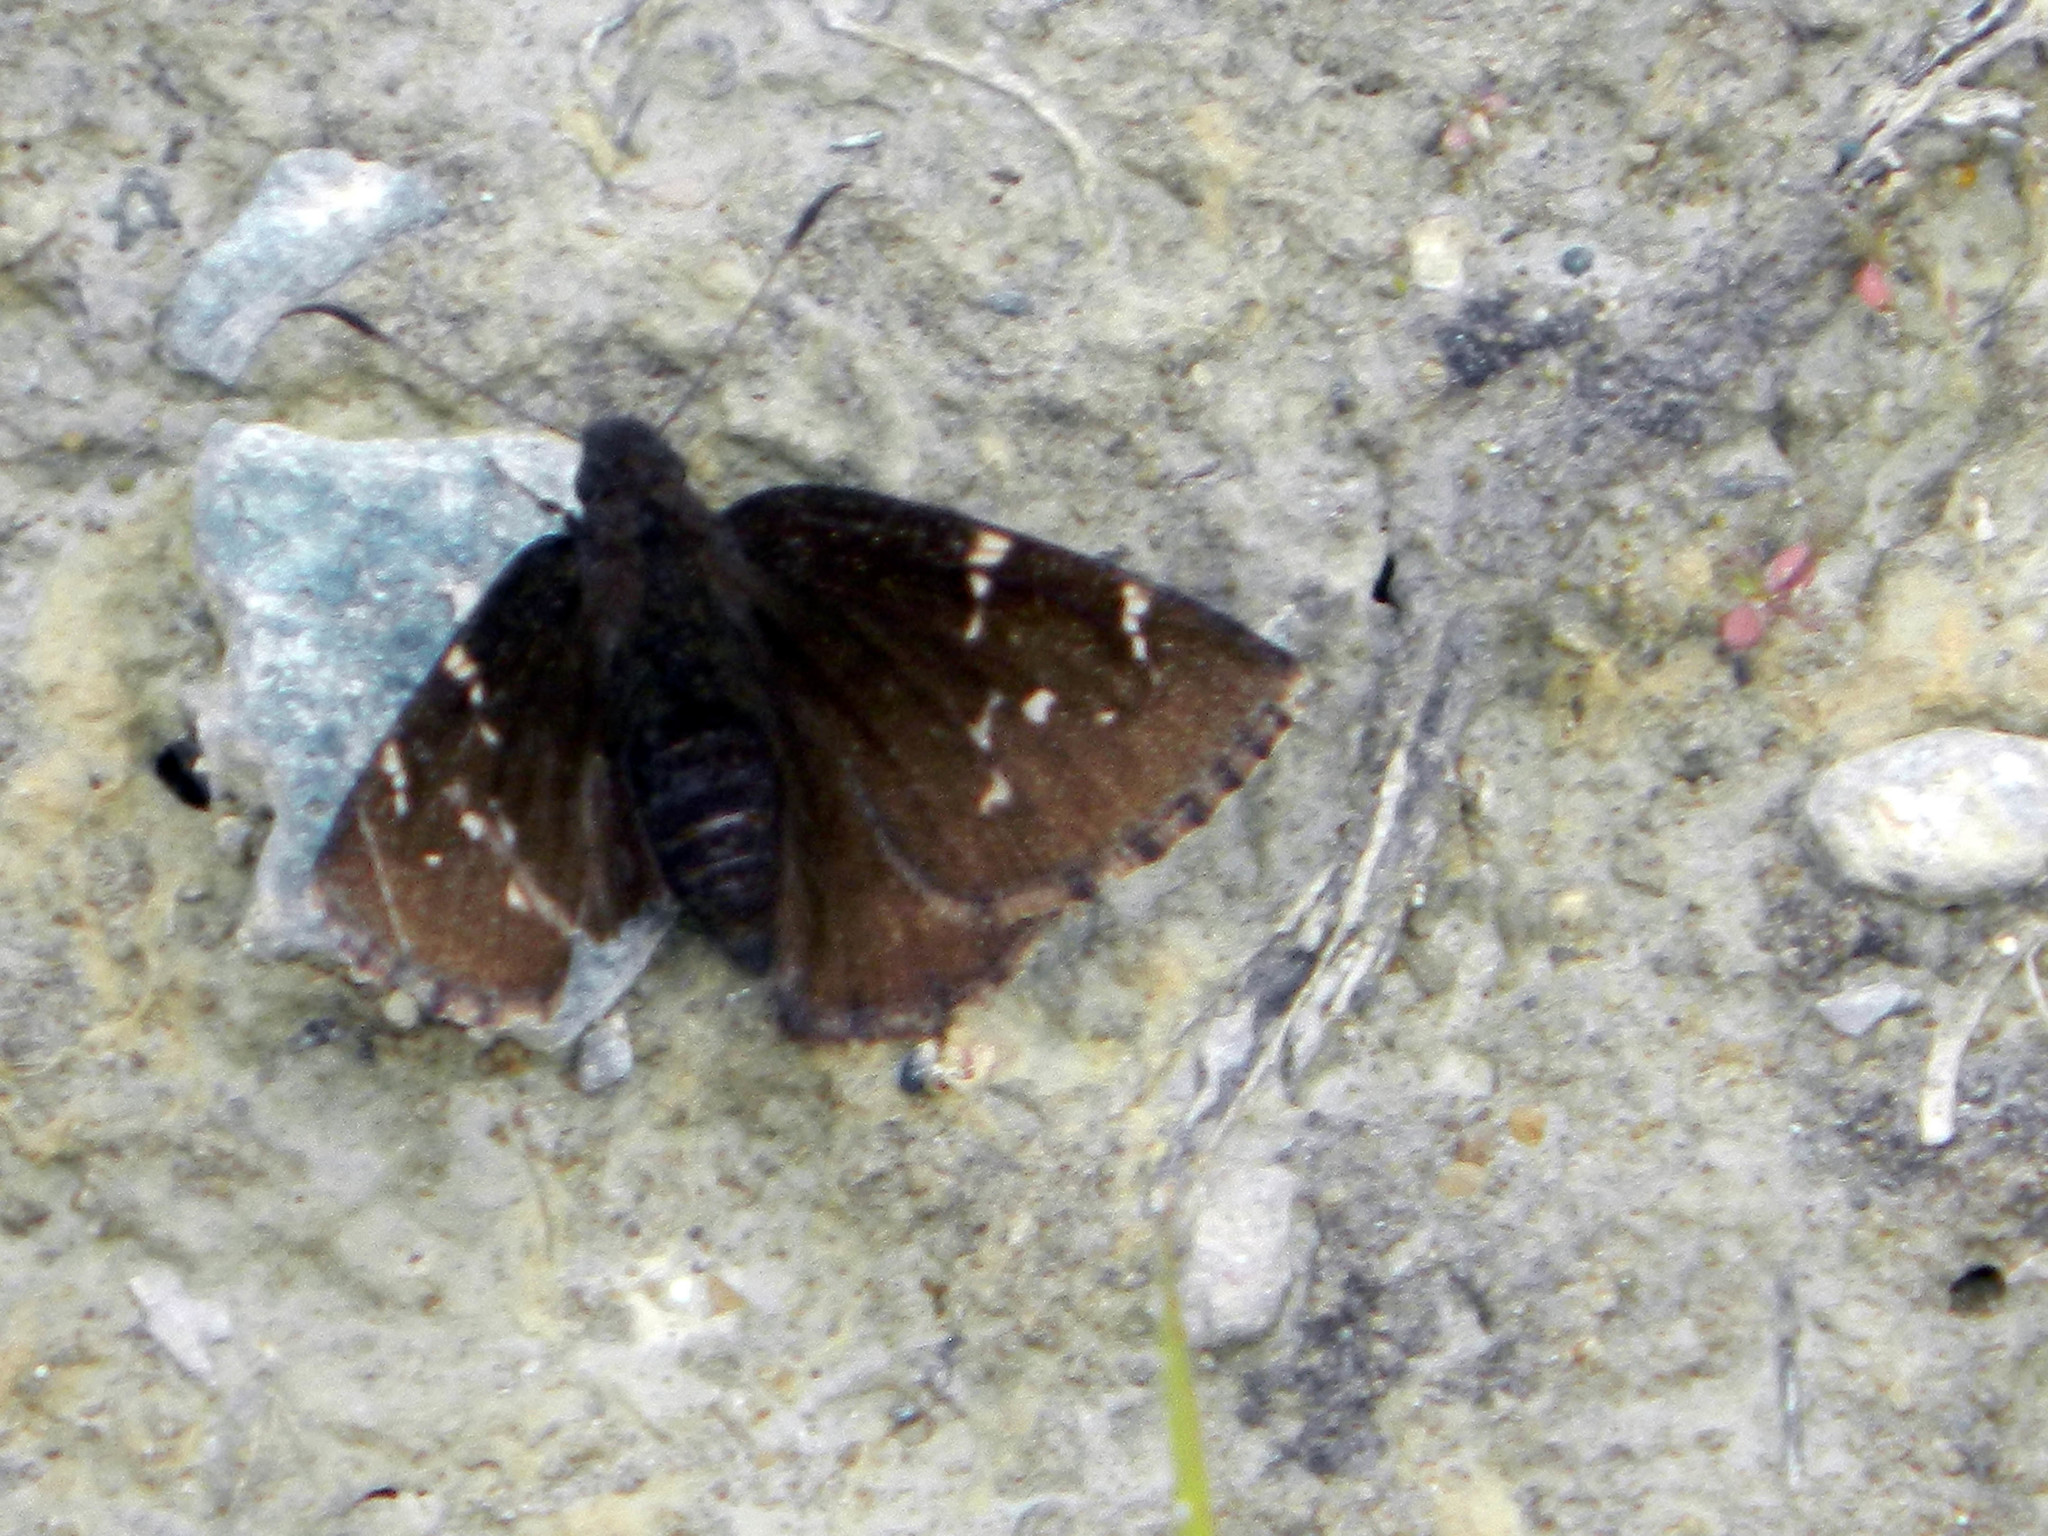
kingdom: Animalia
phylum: Arthropoda
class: Insecta
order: Lepidoptera
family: Hesperiidae
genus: Thorybes
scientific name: Thorybes pylades
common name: Northern cloudywing
